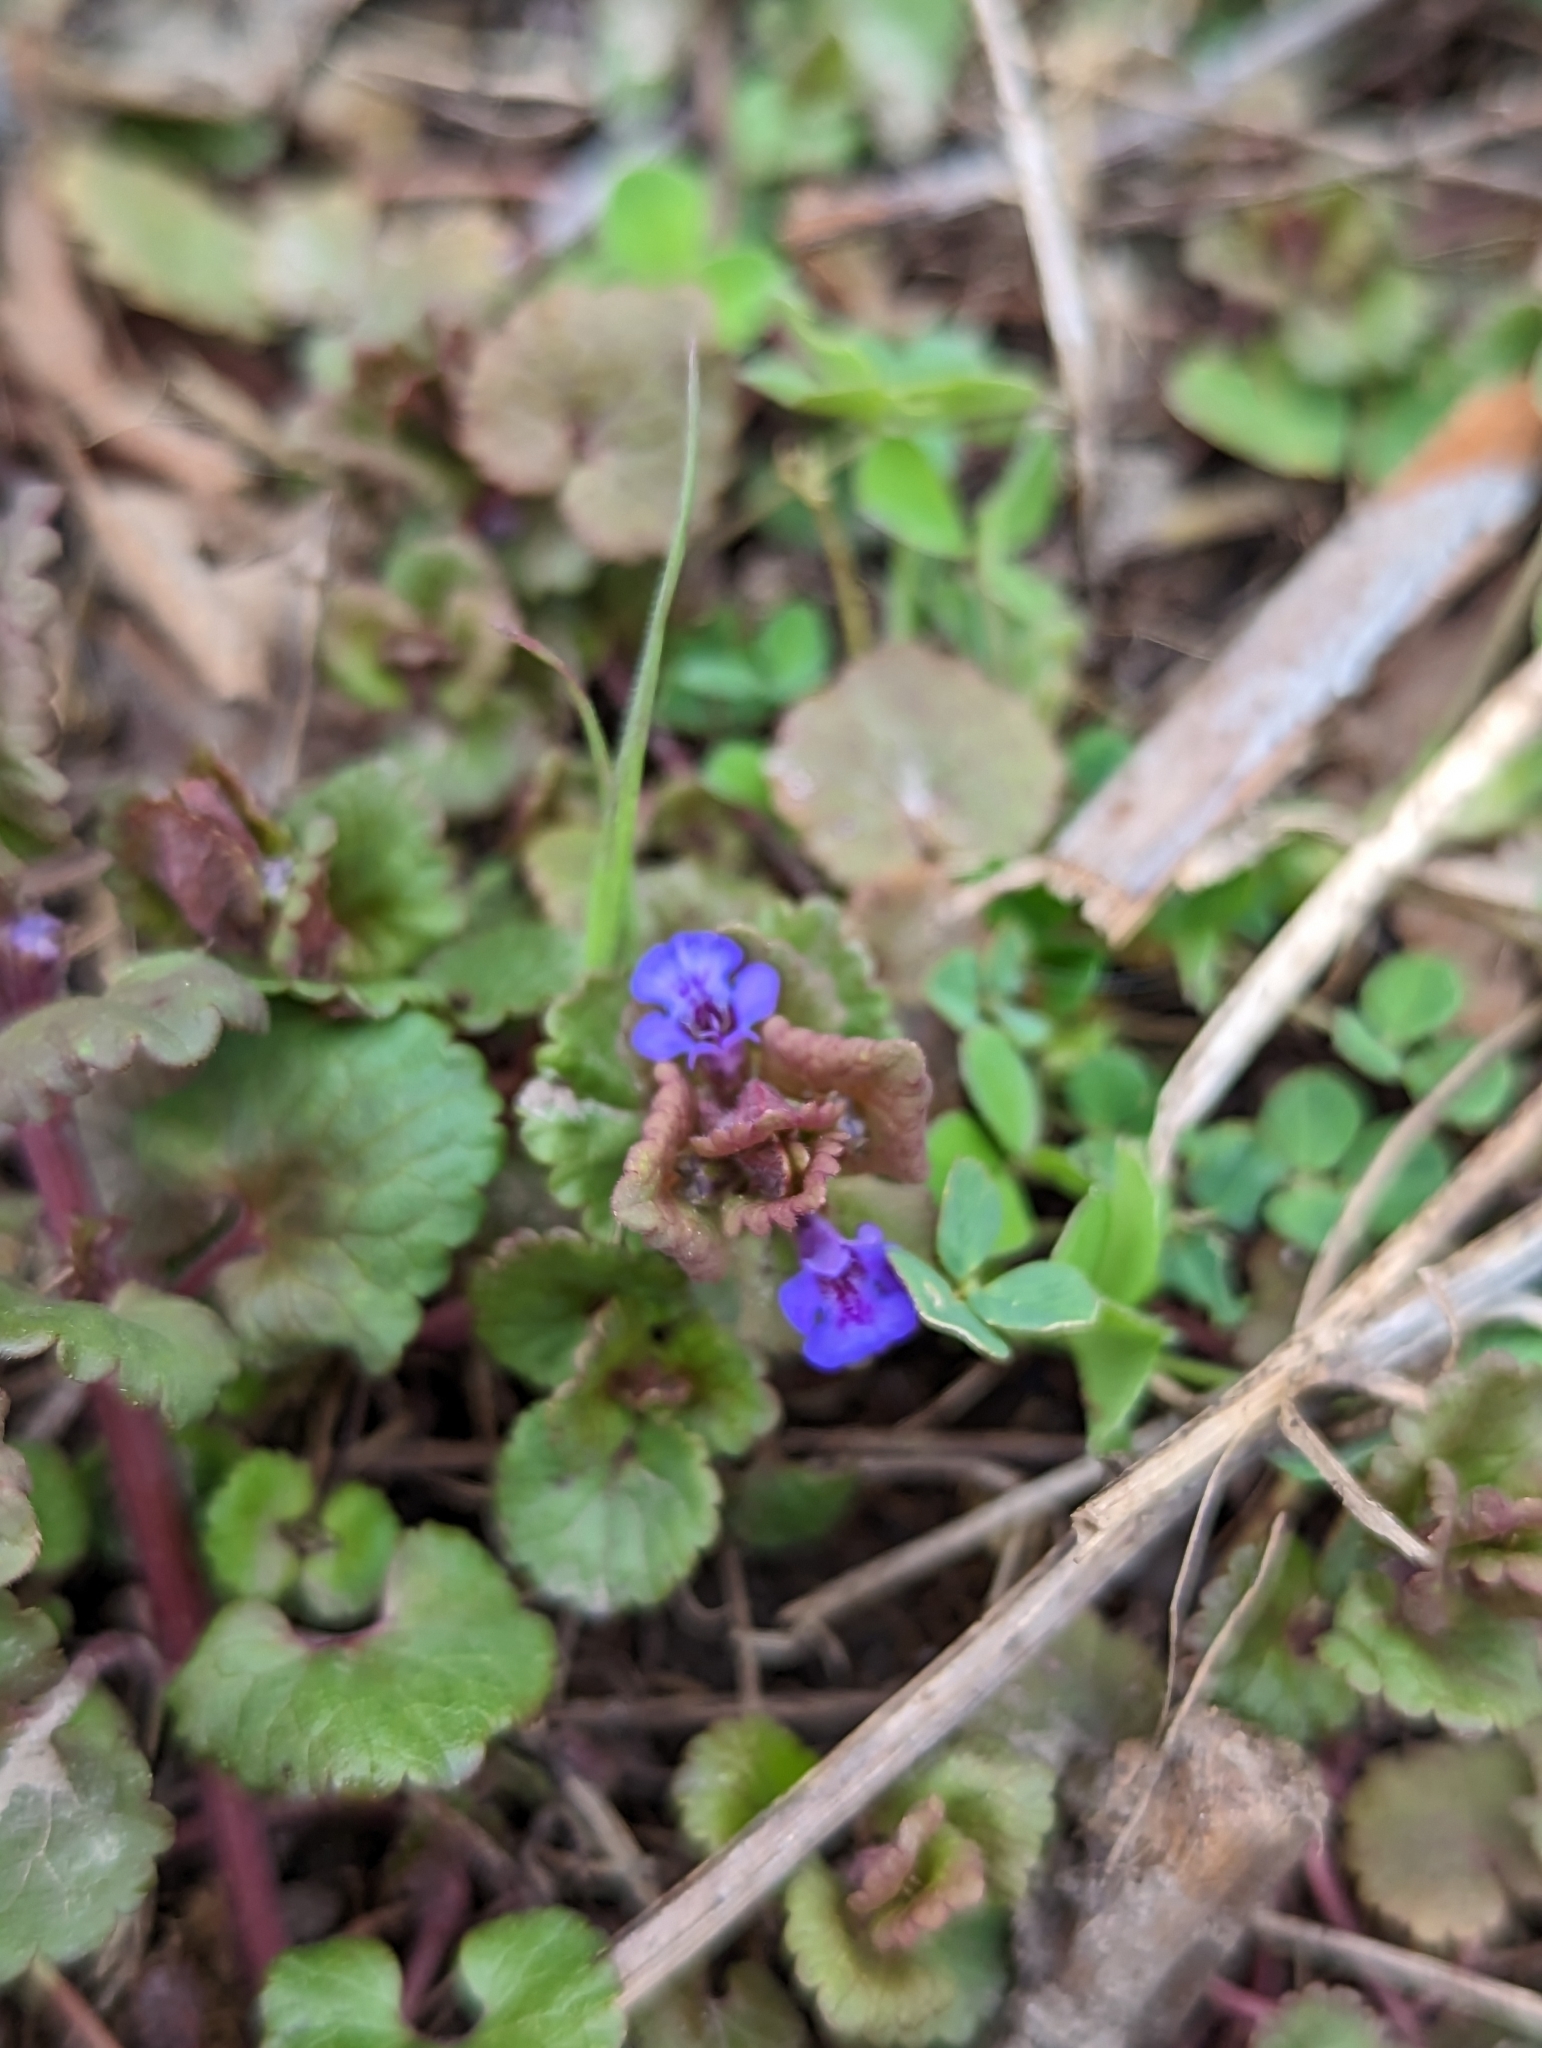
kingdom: Plantae
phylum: Tracheophyta
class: Magnoliopsida
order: Lamiales
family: Lamiaceae
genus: Glechoma
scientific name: Glechoma hederacea
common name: Ground ivy
